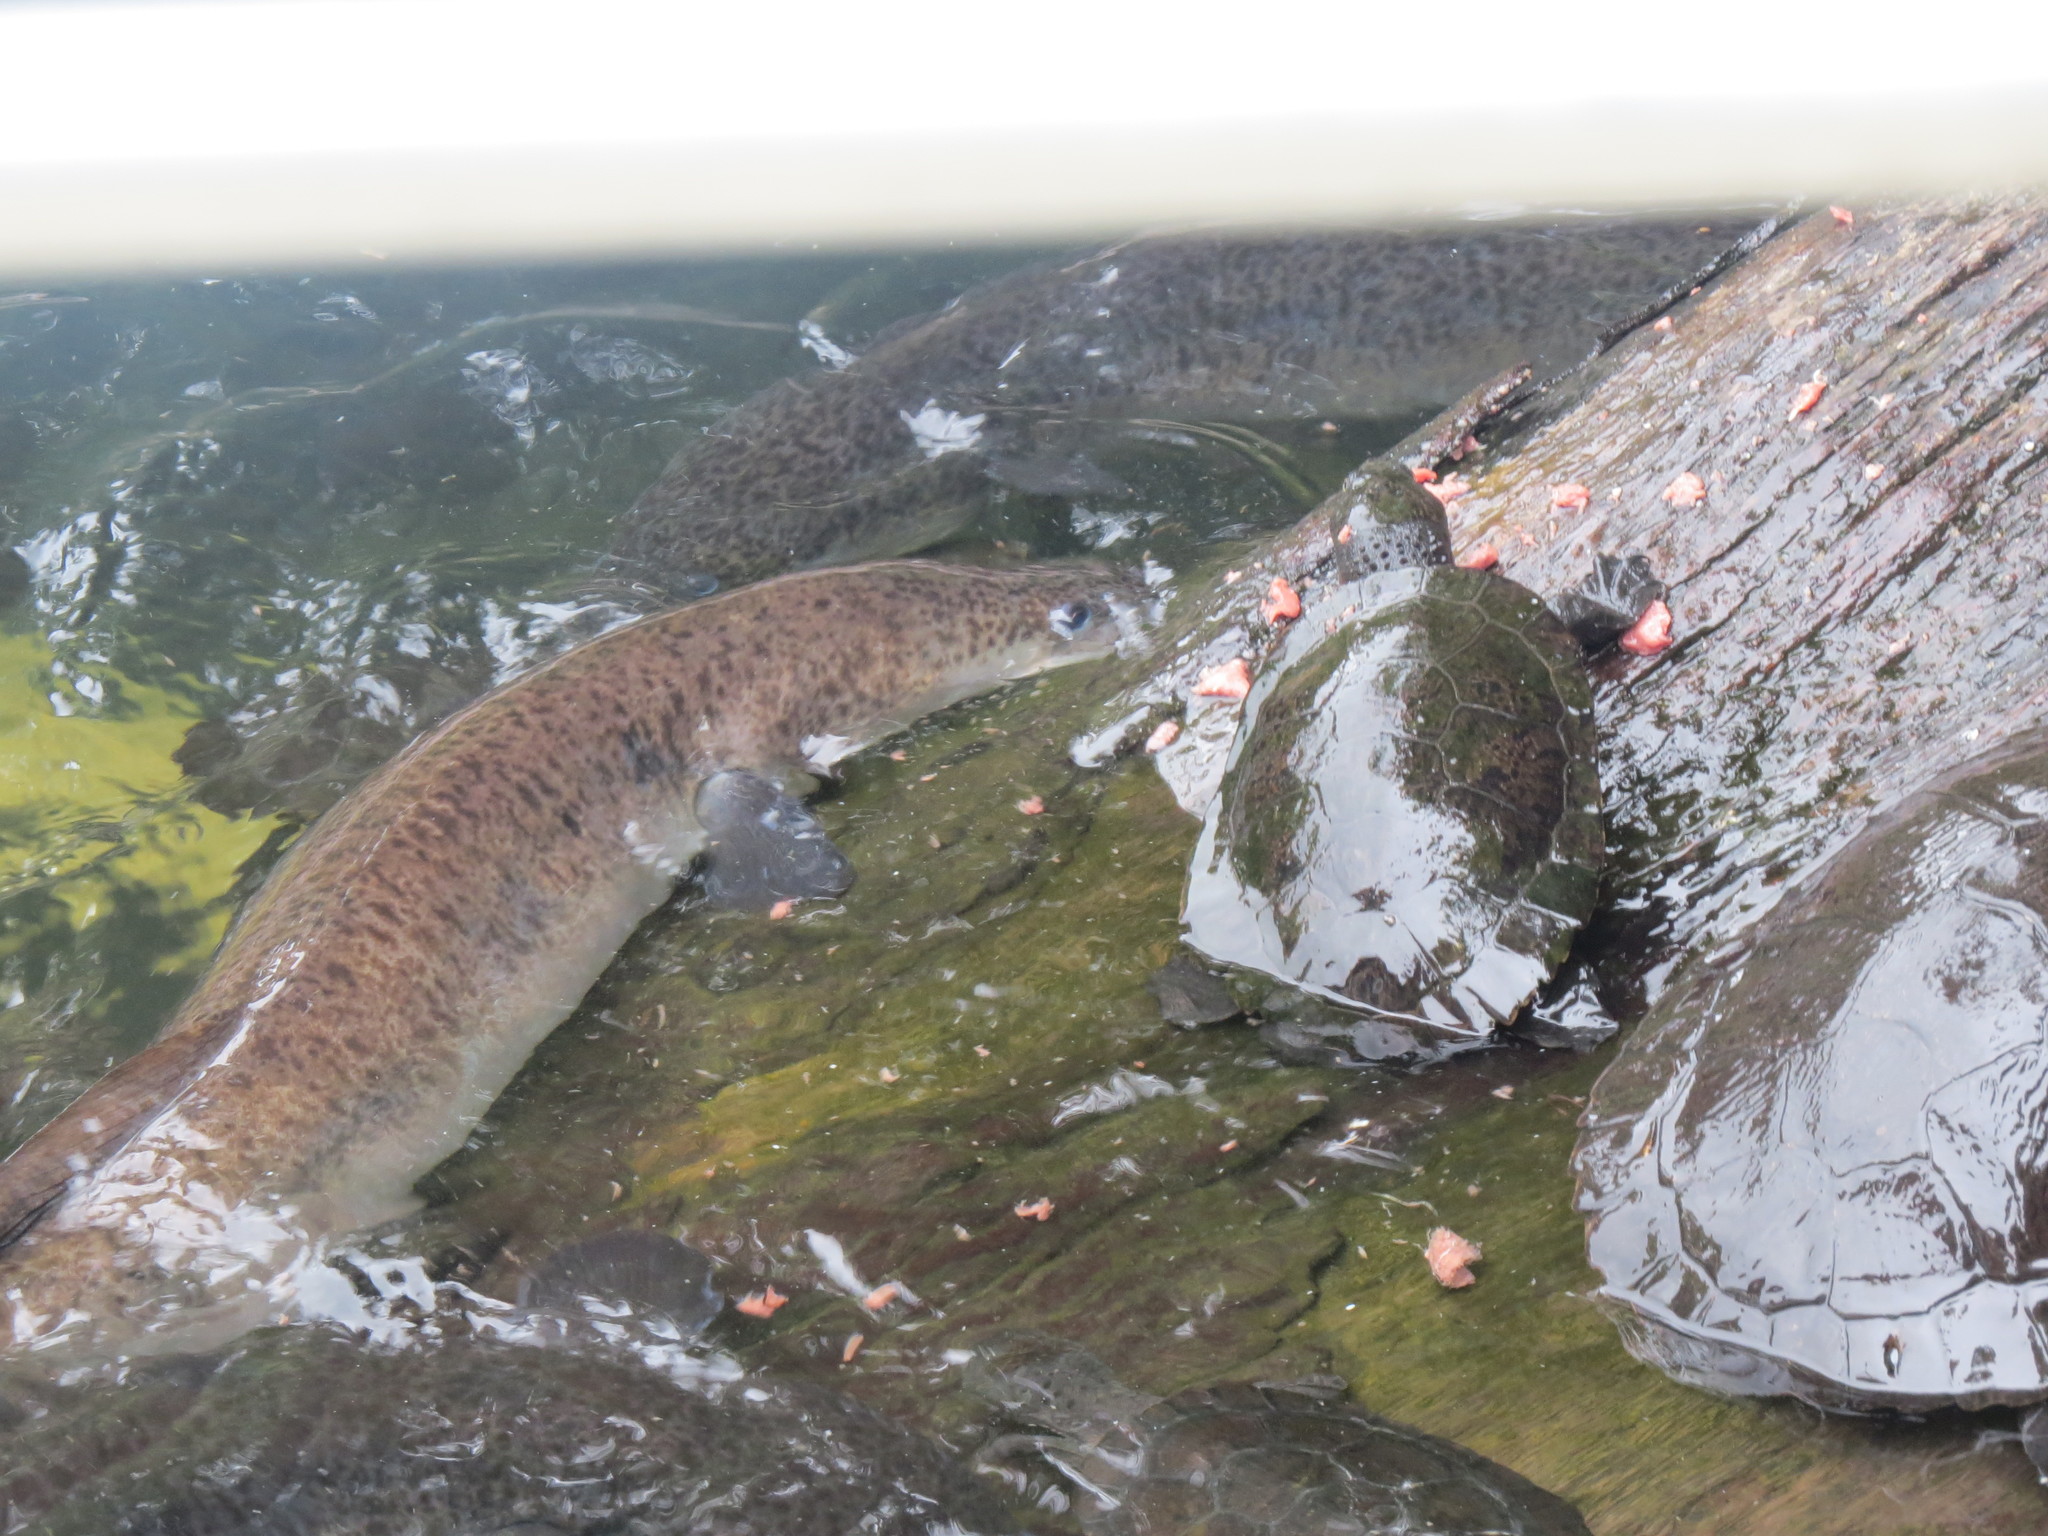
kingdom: Animalia
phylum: Chordata
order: Anguilliformes
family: Anguillidae
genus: Anguilla
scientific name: Anguilla reinhardtii
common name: Longfin eel
